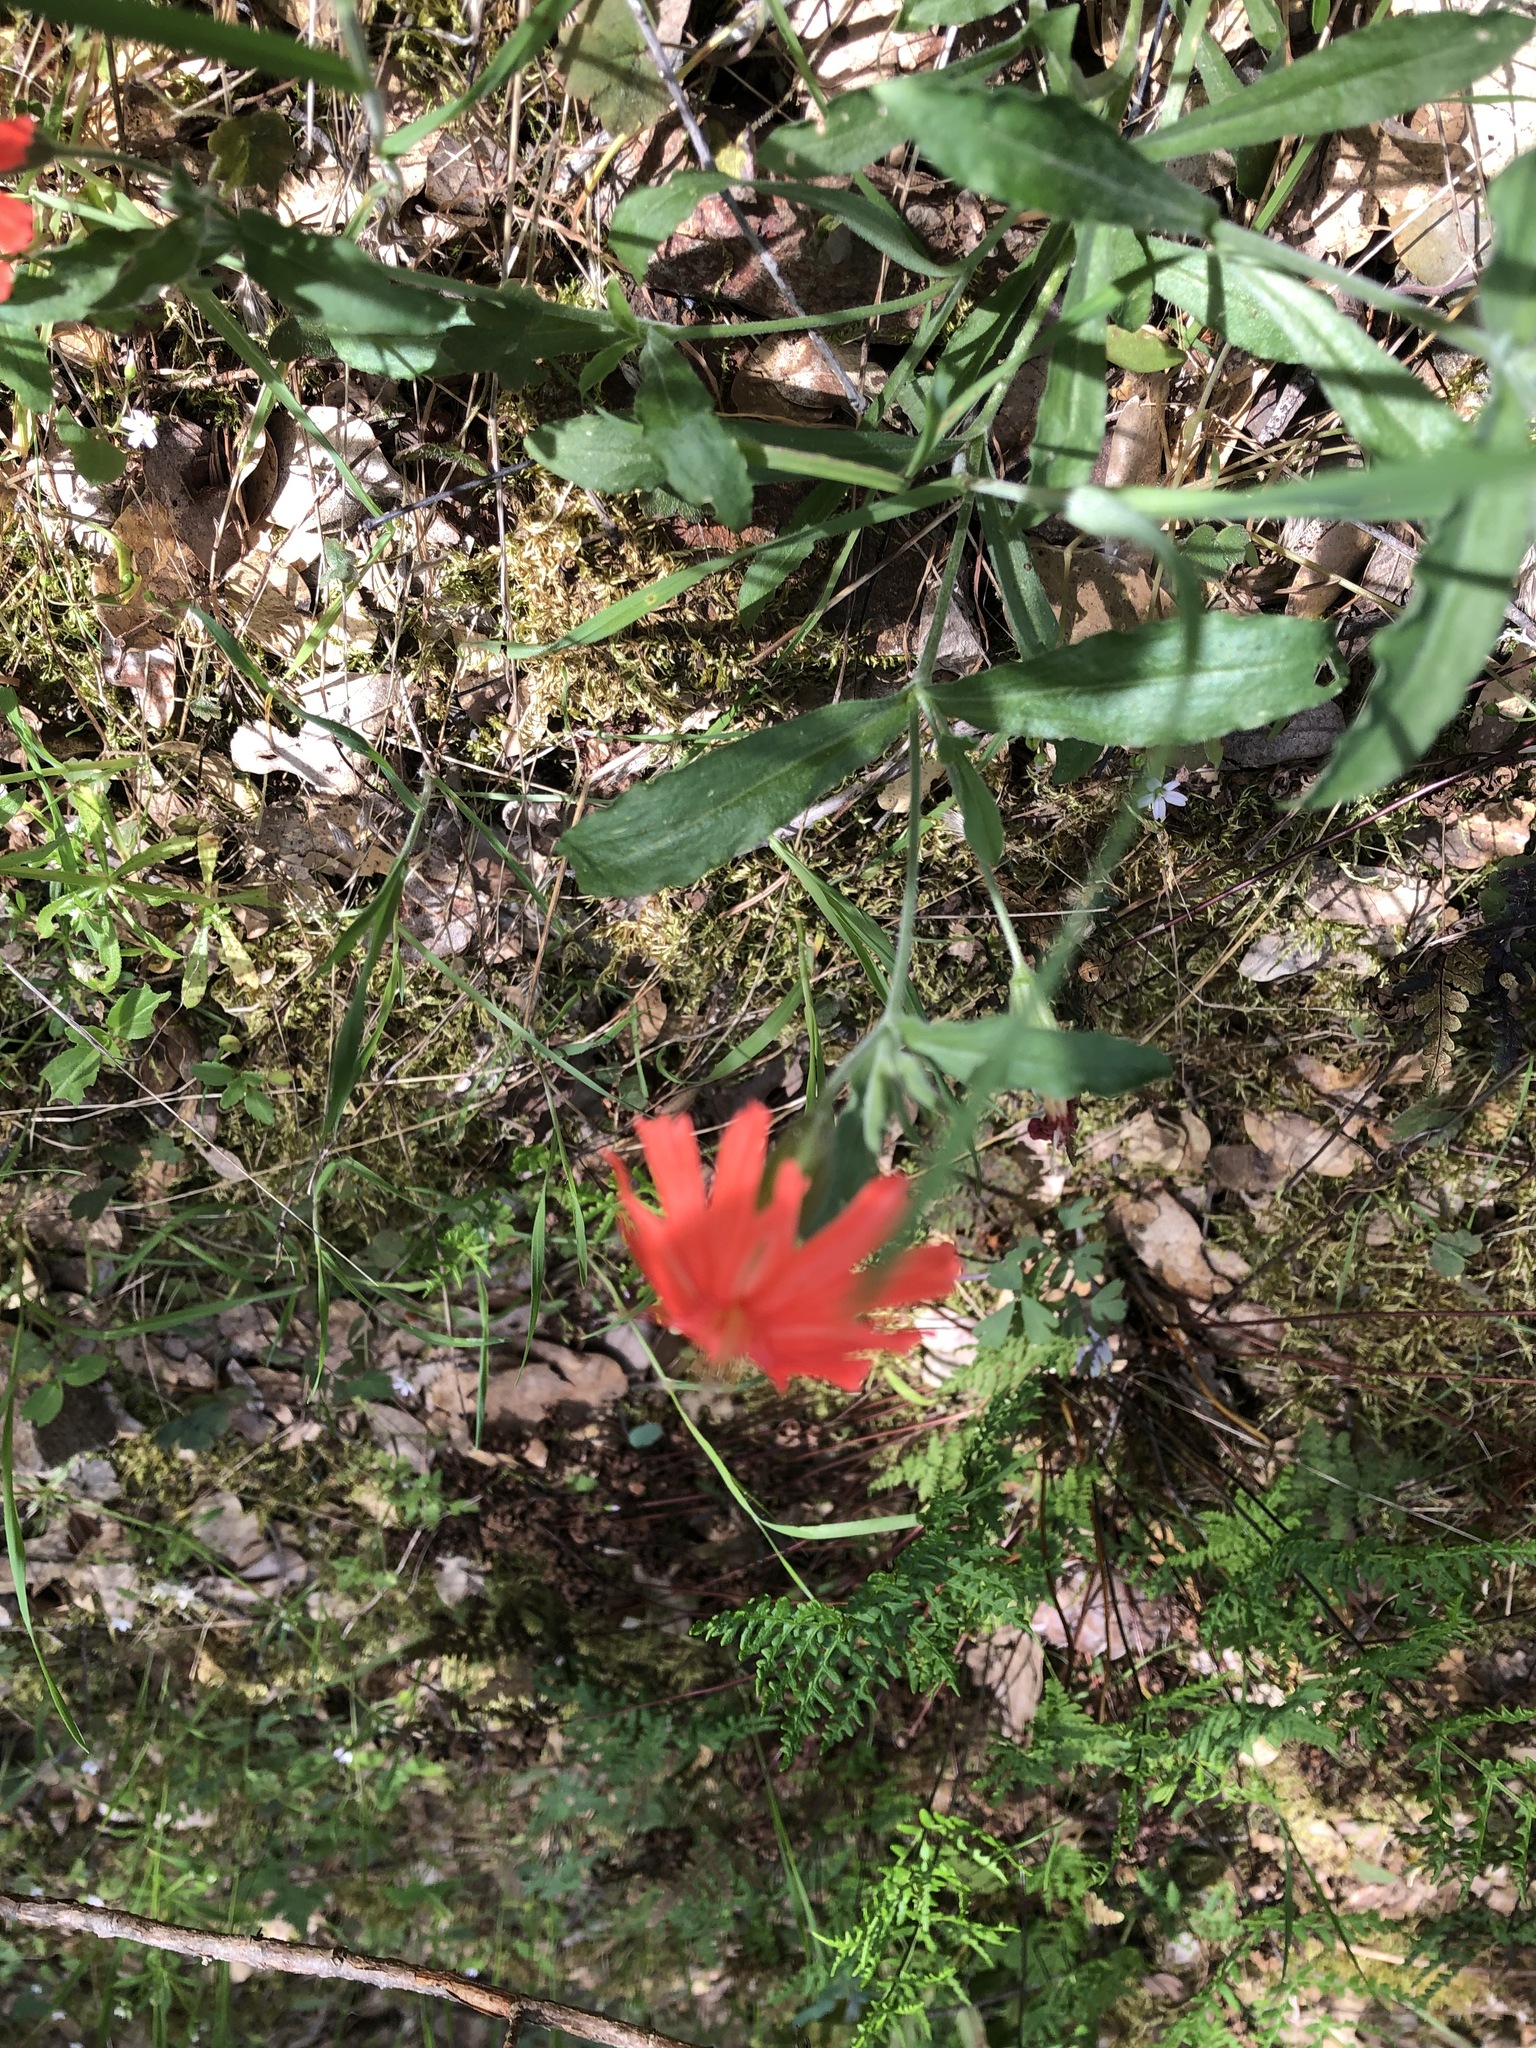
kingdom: Plantae
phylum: Tracheophyta
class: Magnoliopsida
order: Caryophyllales
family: Caryophyllaceae
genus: Silene
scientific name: Silene laciniata
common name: Indian-pink
